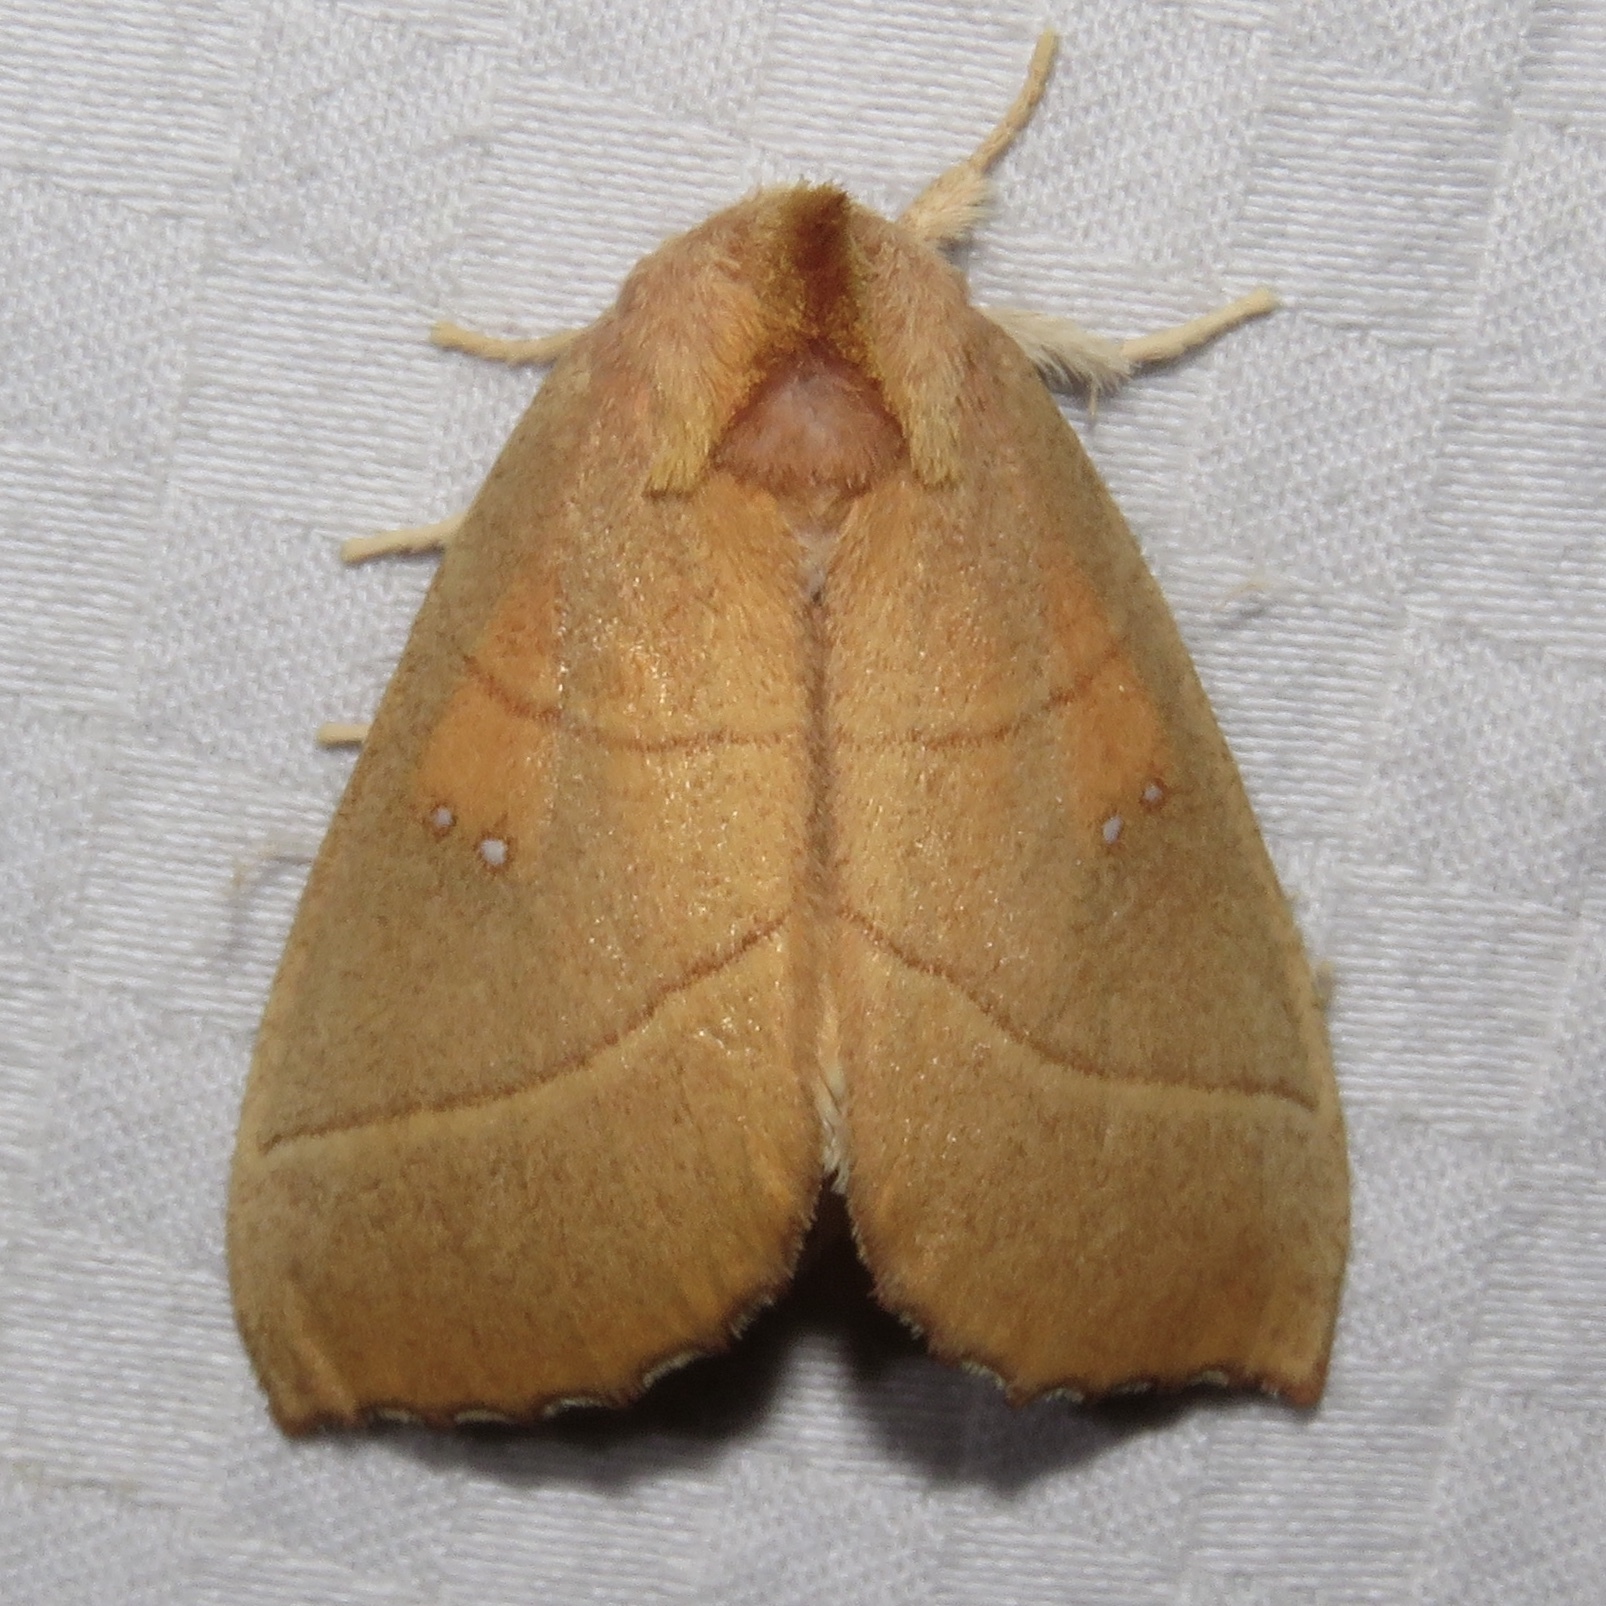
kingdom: Animalia
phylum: Arthropoda
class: Insecta
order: Lepidoptera
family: Notodontidae
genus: Nadata
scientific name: Nadata gibbosa
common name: White-dotted prominent
